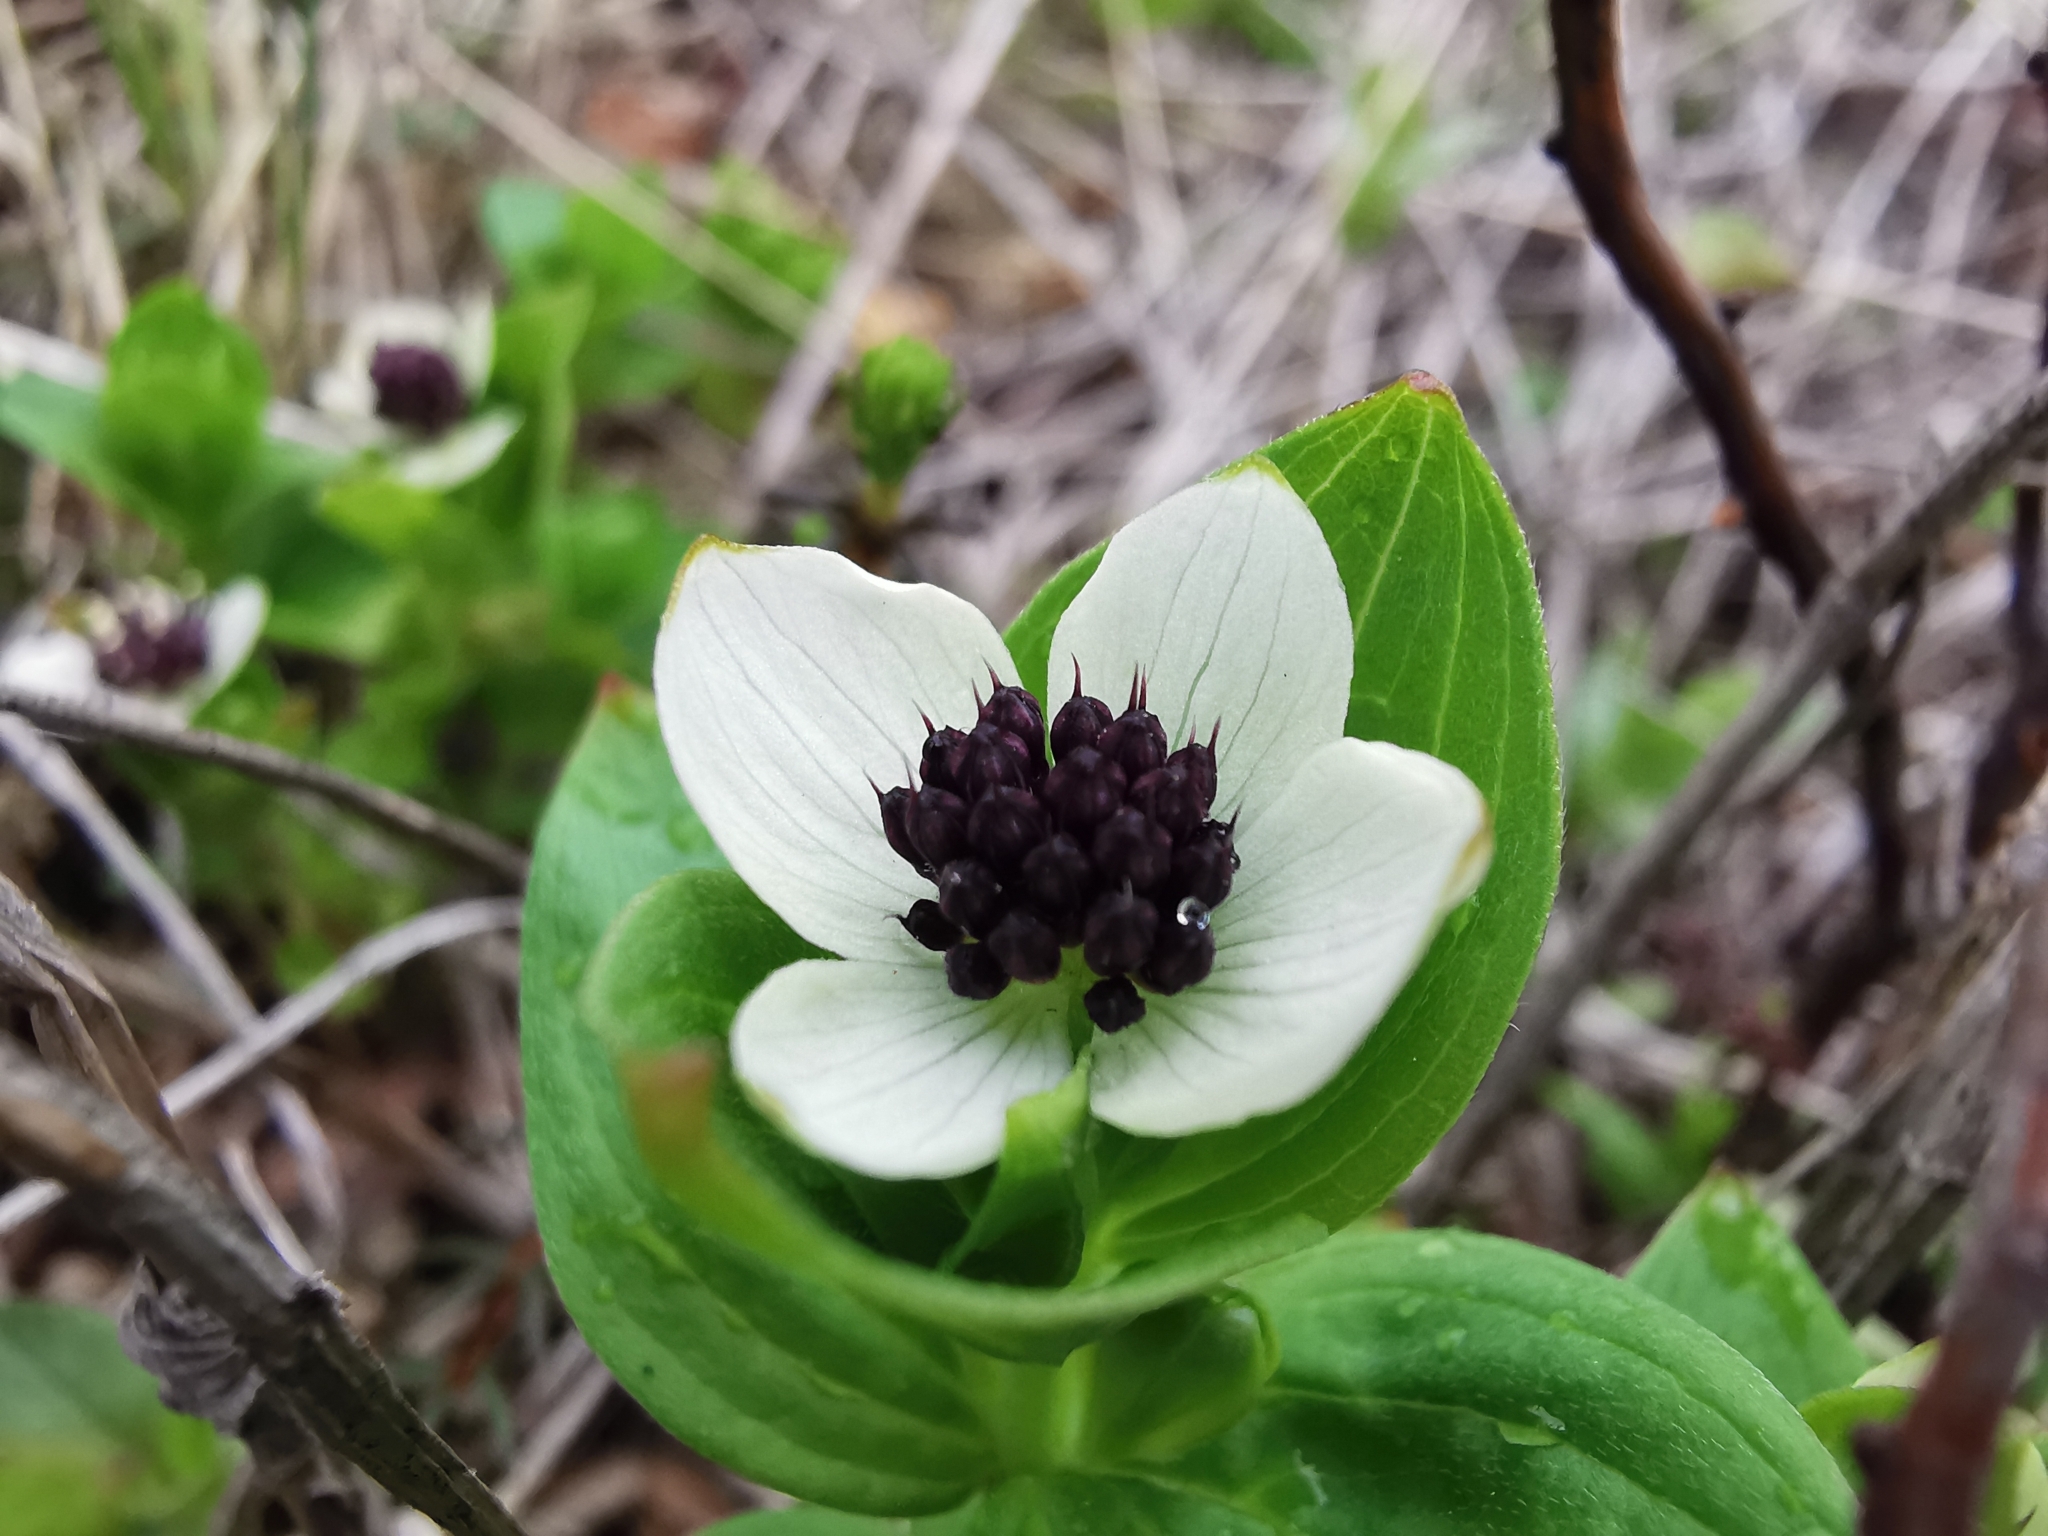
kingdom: Plantae
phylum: Tracheophyta
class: Magnoliopsida
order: Cornales
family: Cornaceae
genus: Cornus
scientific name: Cornus suecica
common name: Dwarf cornel
